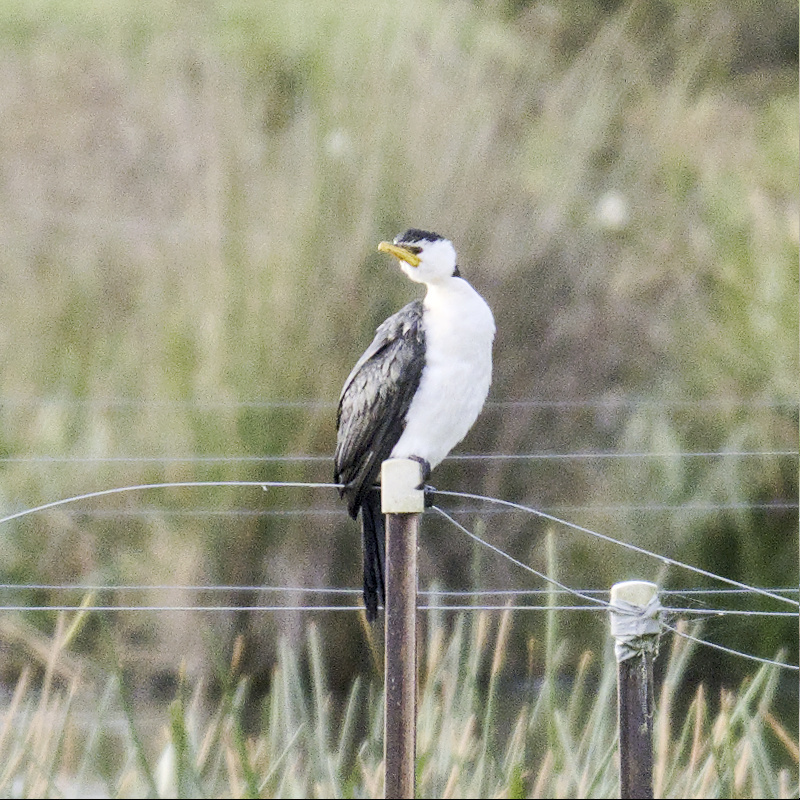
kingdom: Animalia
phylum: Chordata
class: Aves
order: Suliformes
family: Phalacrocoracidae
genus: Microcarbo
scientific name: Microcarbo melanoleucos
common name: Little pied cormorant
